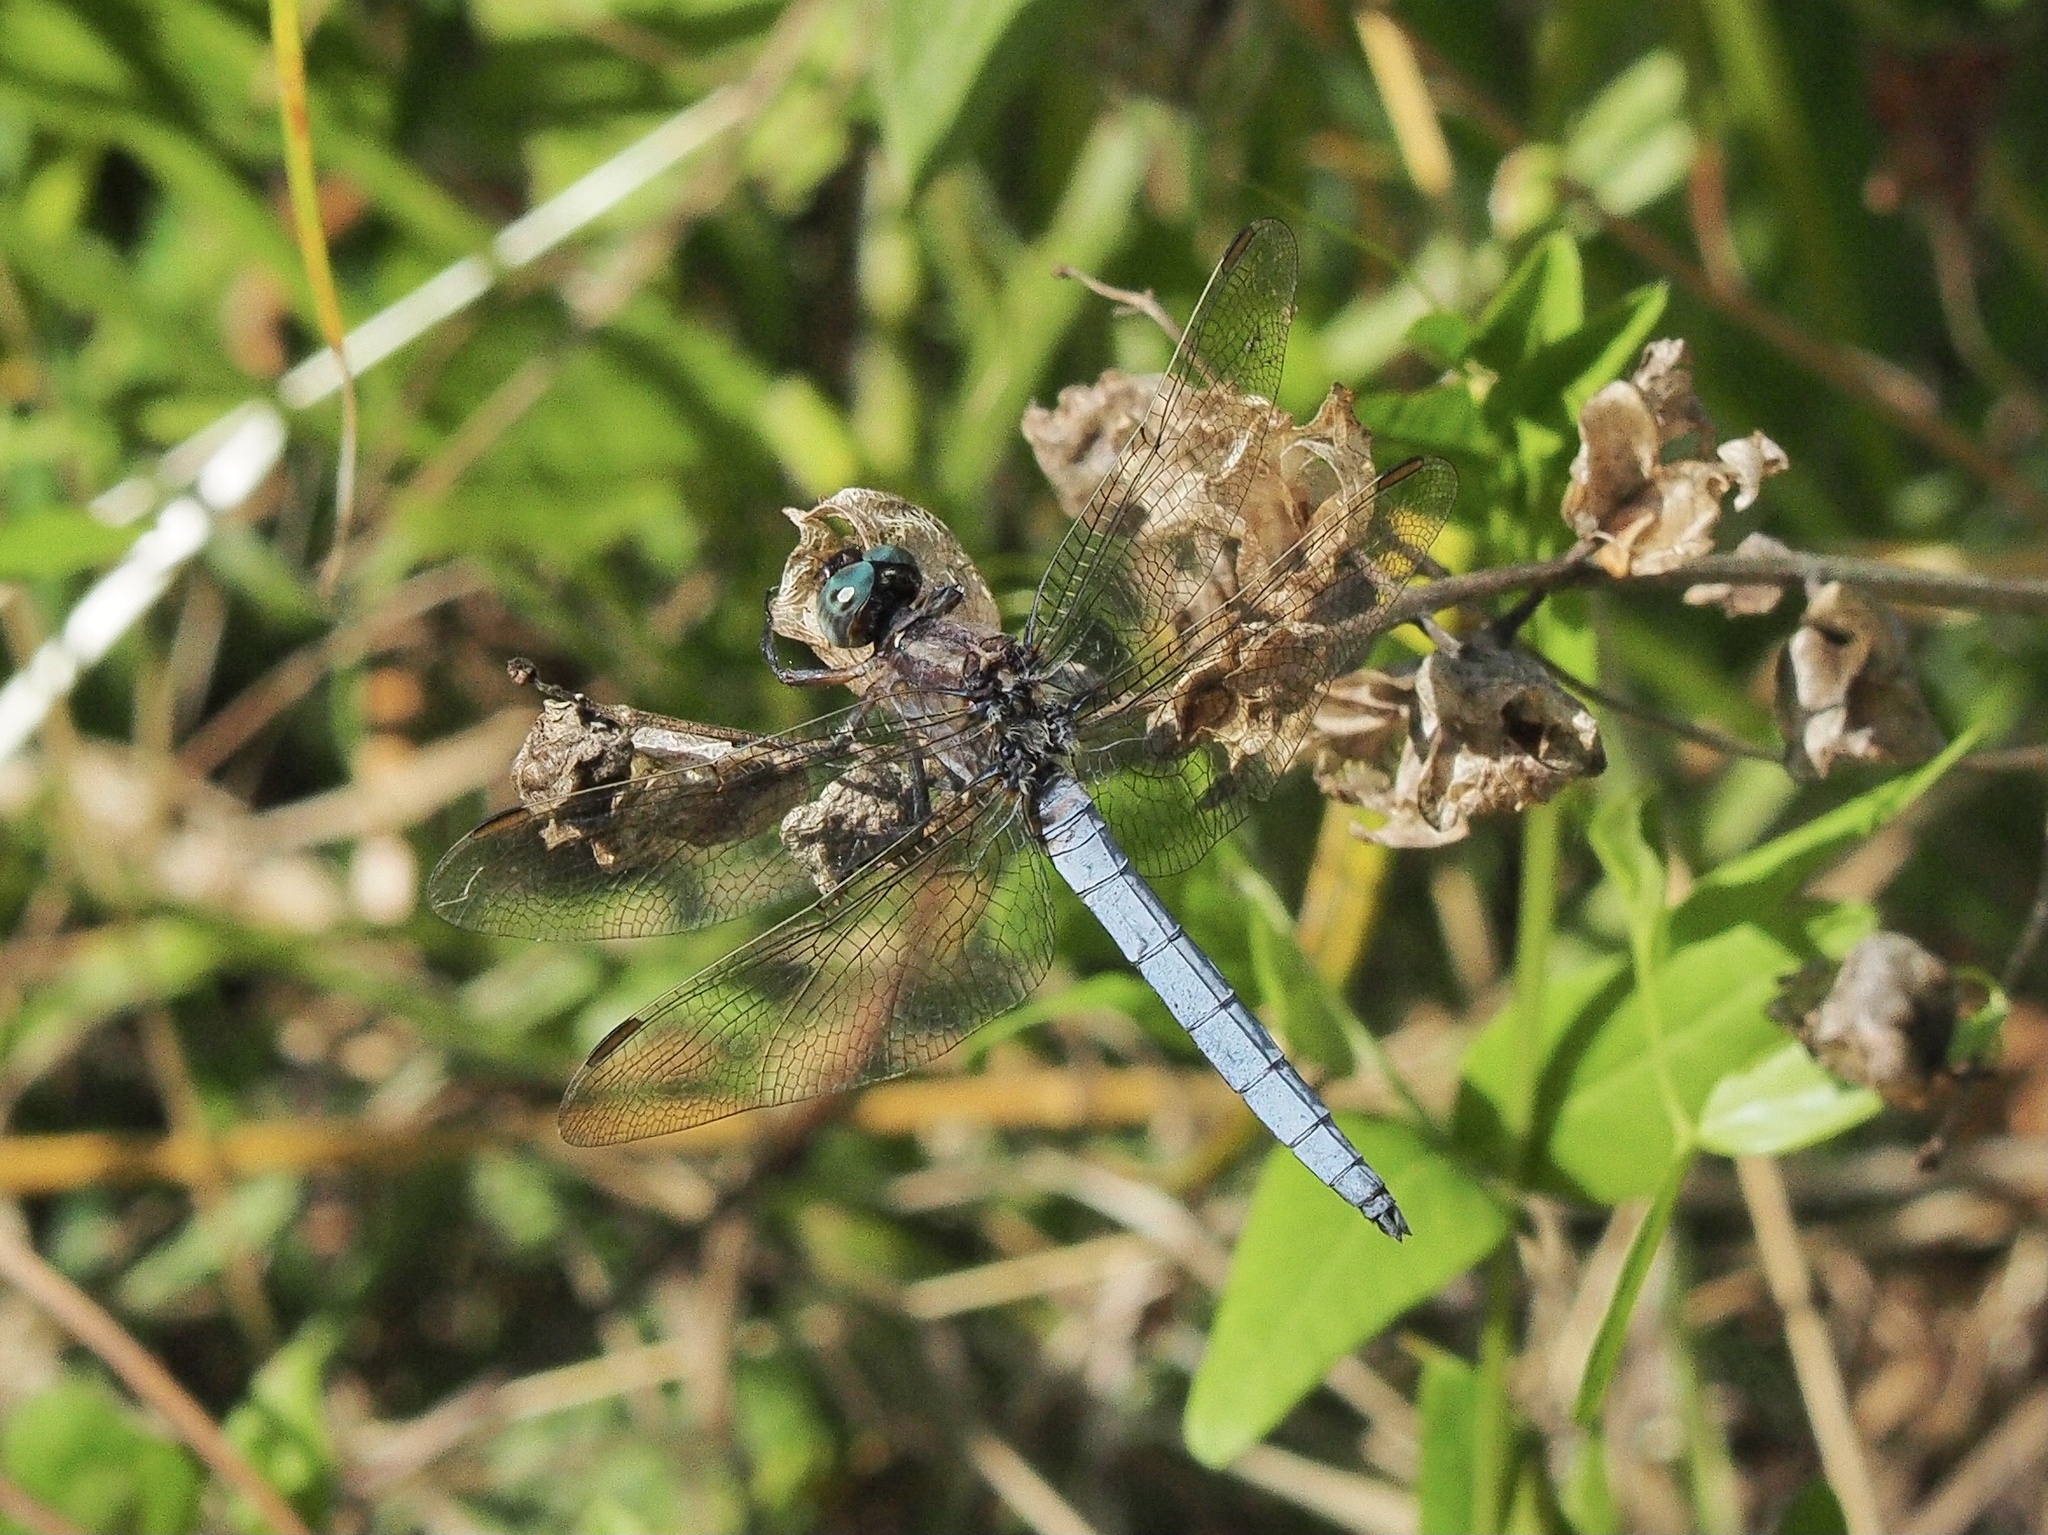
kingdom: Animalia
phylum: Arthropoda
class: Insecta
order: Odonata
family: Libellulidae
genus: Orthetrum
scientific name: Orthetrum coerulescens
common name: Keeled skimmer
